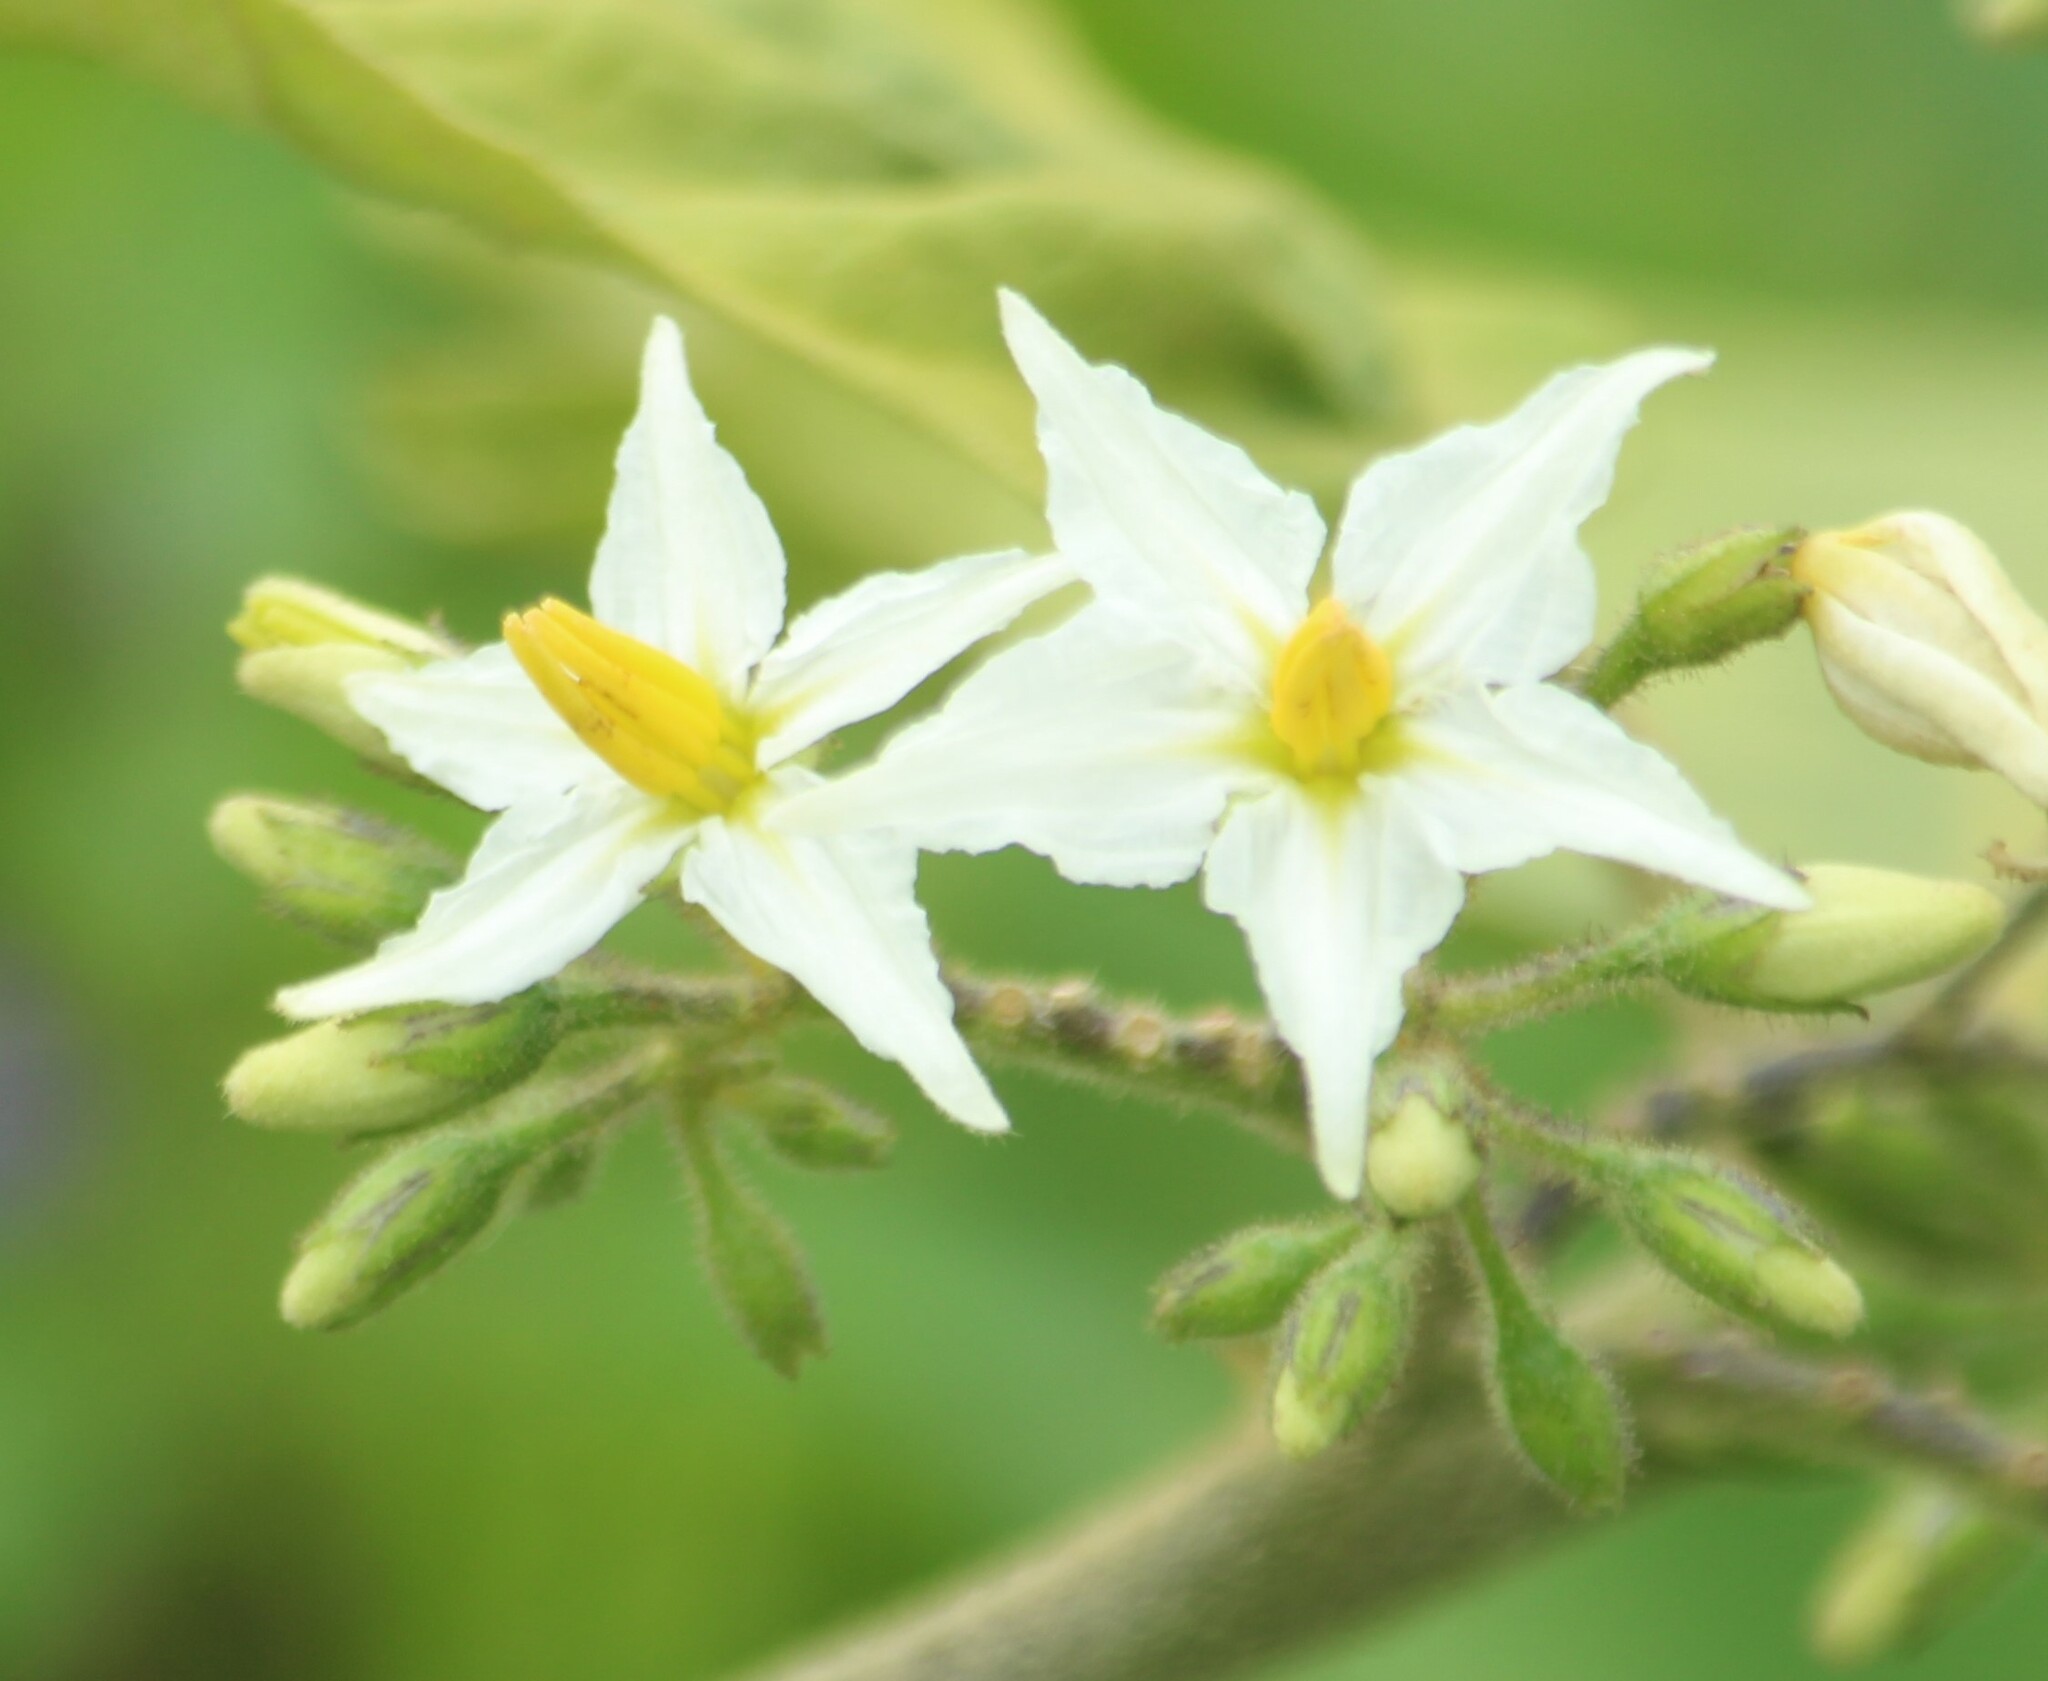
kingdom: Plantae
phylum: Tracheophyta
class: Magnoliopsida
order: Solanales
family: Solanaceae
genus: Solanum
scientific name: Solanum torvum
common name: Turkey berry
